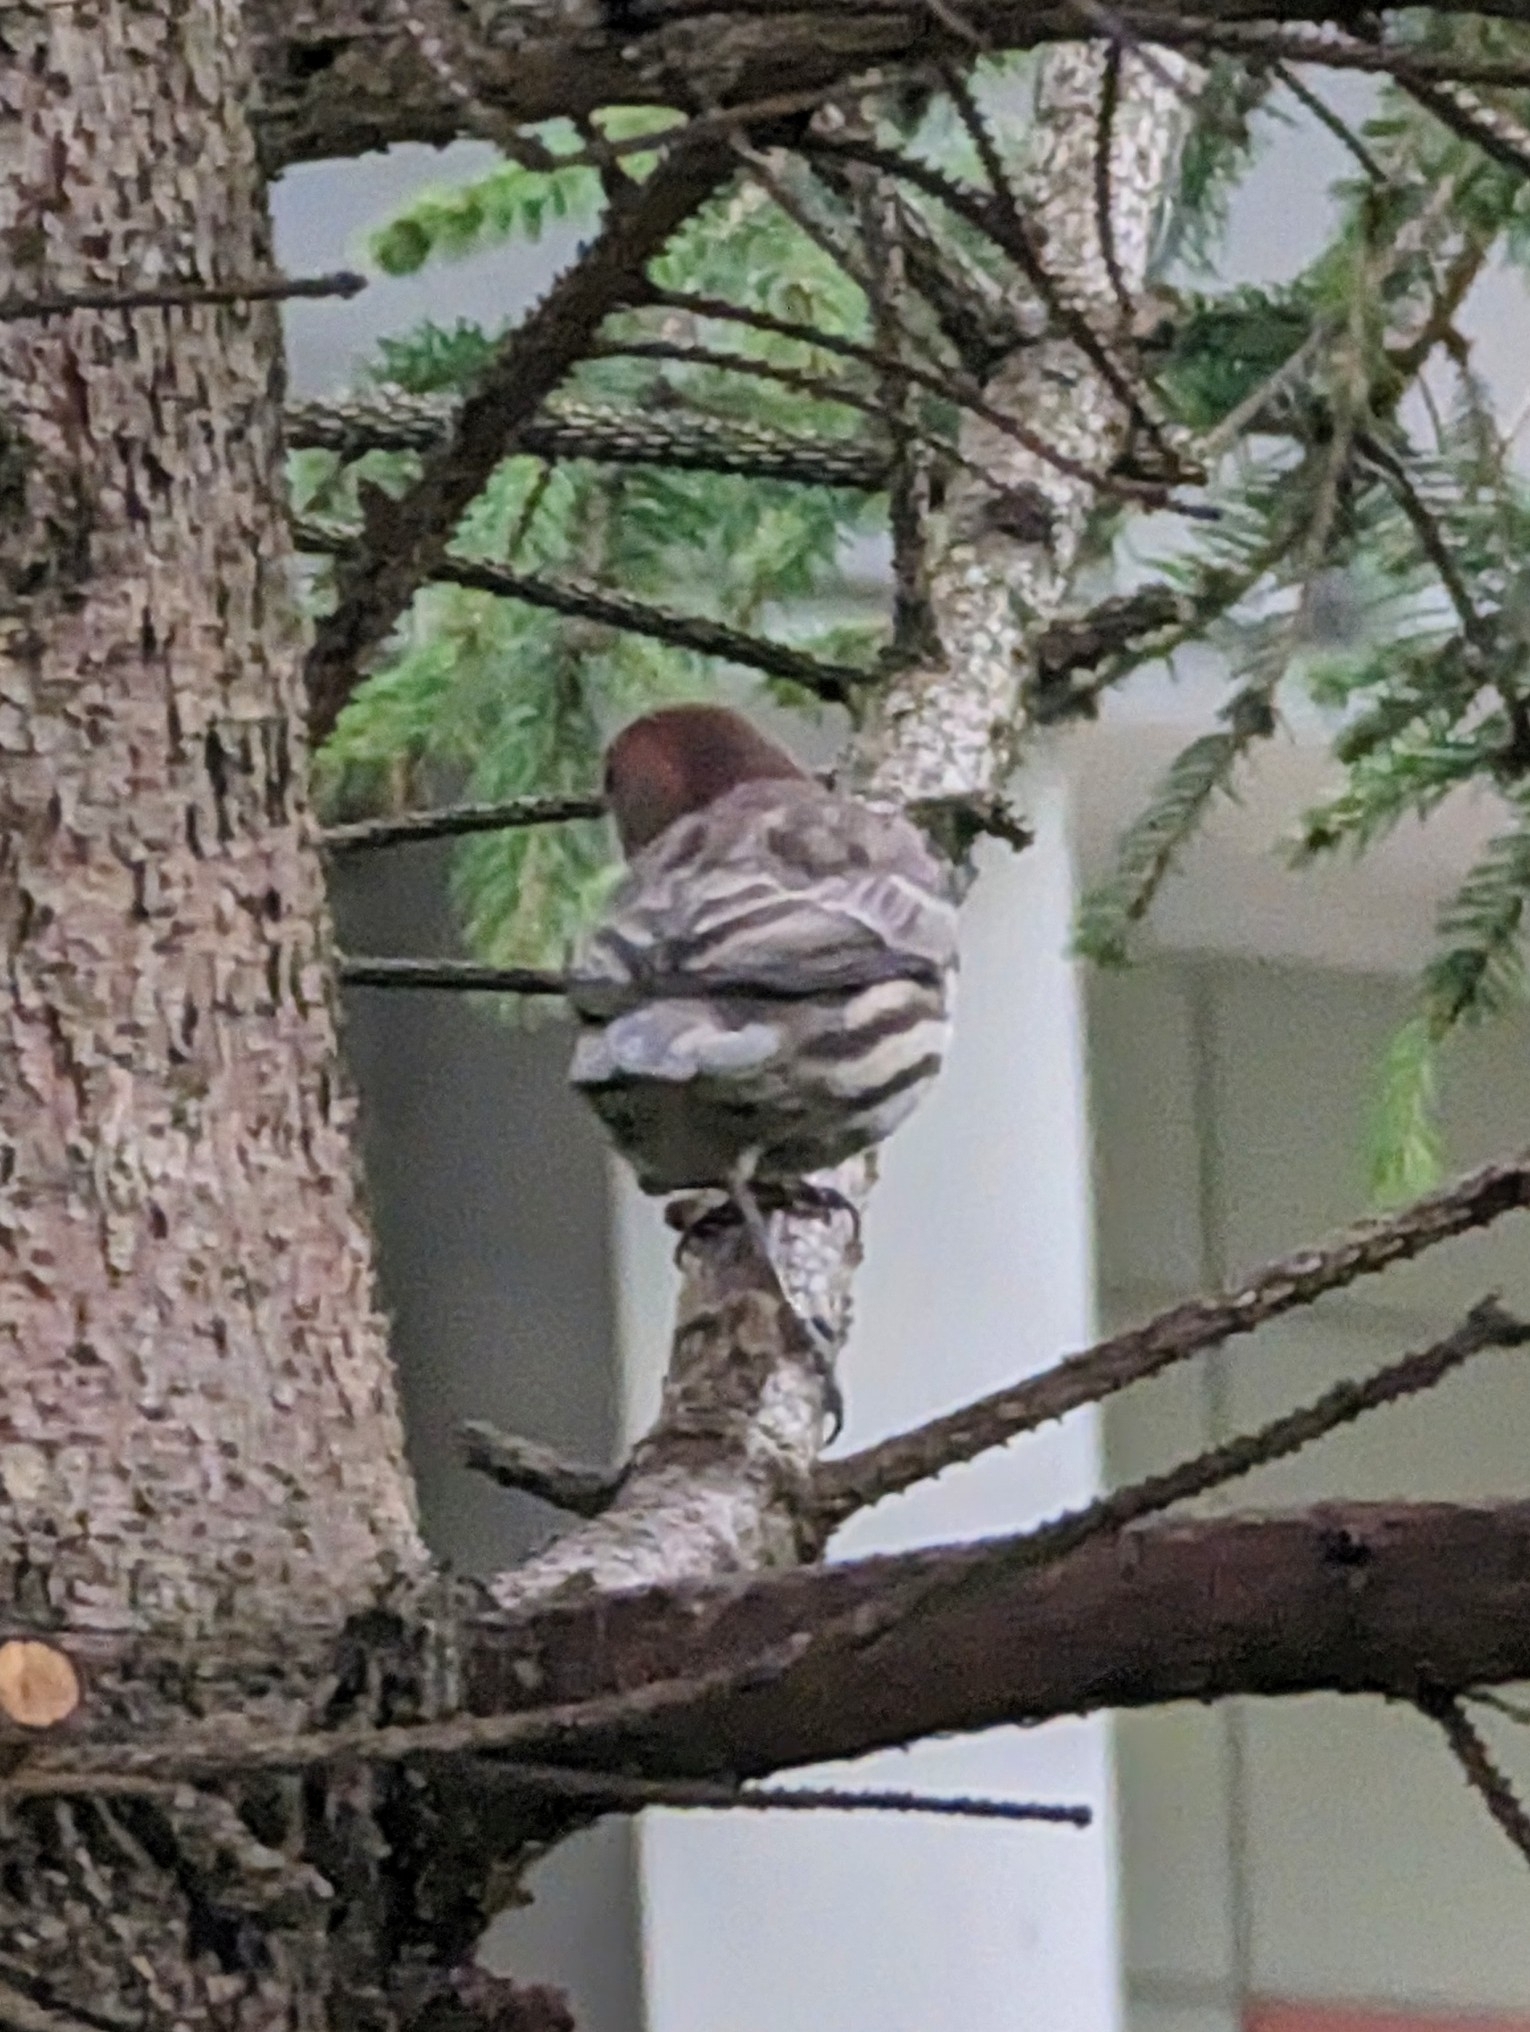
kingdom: Animalia
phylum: Chordata
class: Aves
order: Passeriformes
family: Fringillidae
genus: Haemorhous
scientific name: Haemorhous mexicanus
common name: House finch
